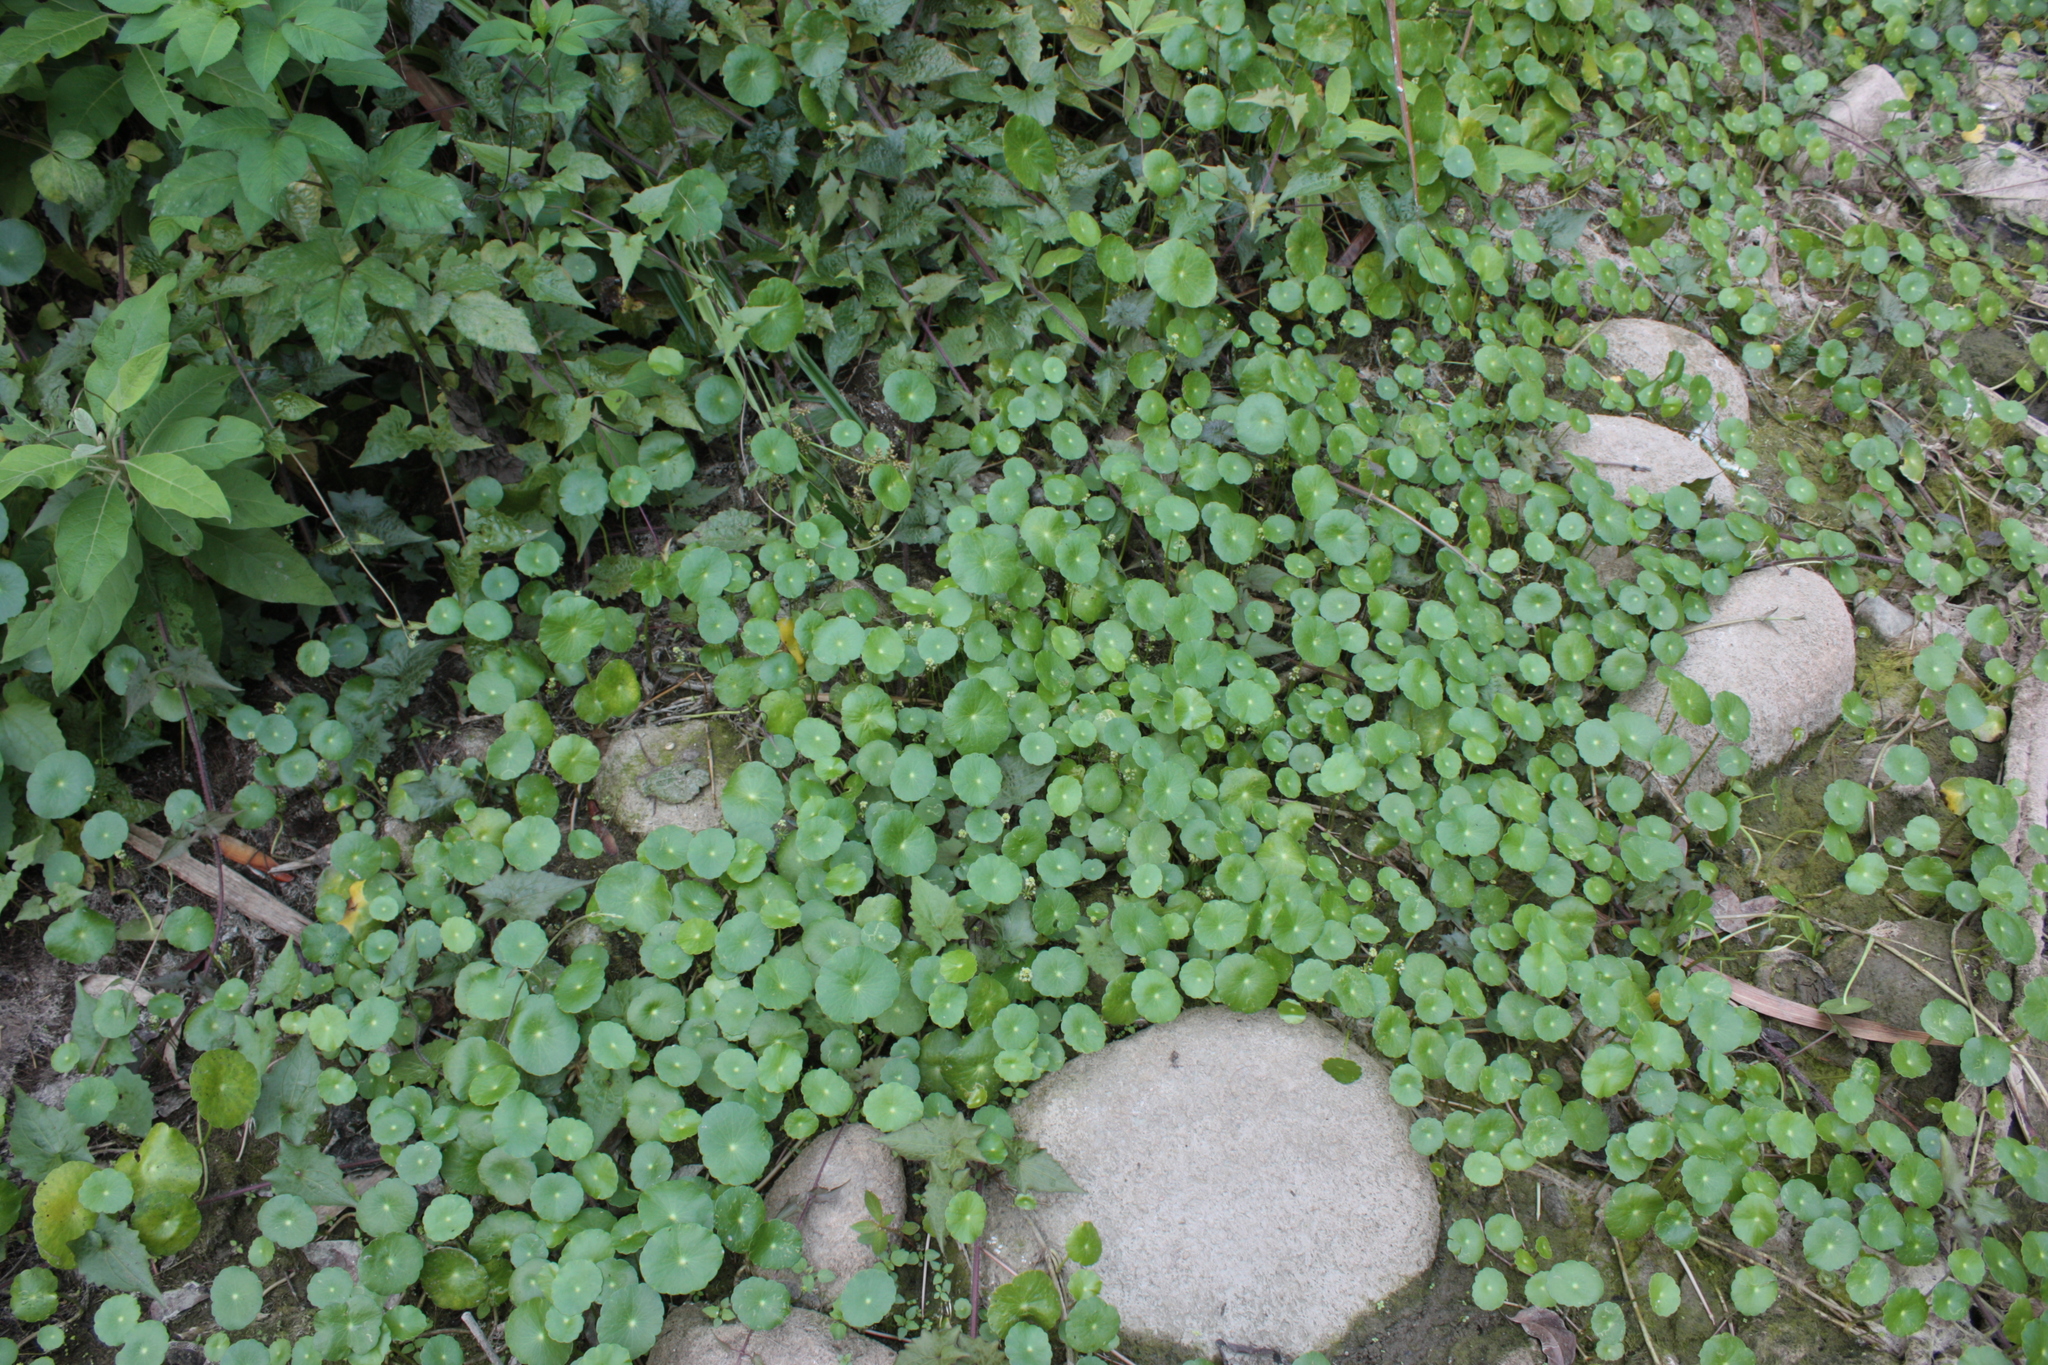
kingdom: Plantae
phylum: Tracheophyta
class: Magnoliopsida
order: Apiales
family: Araliaceae
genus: Hydrocotyle
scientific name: Hydrocotyle verticillata
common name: Whorled marshpennywort
